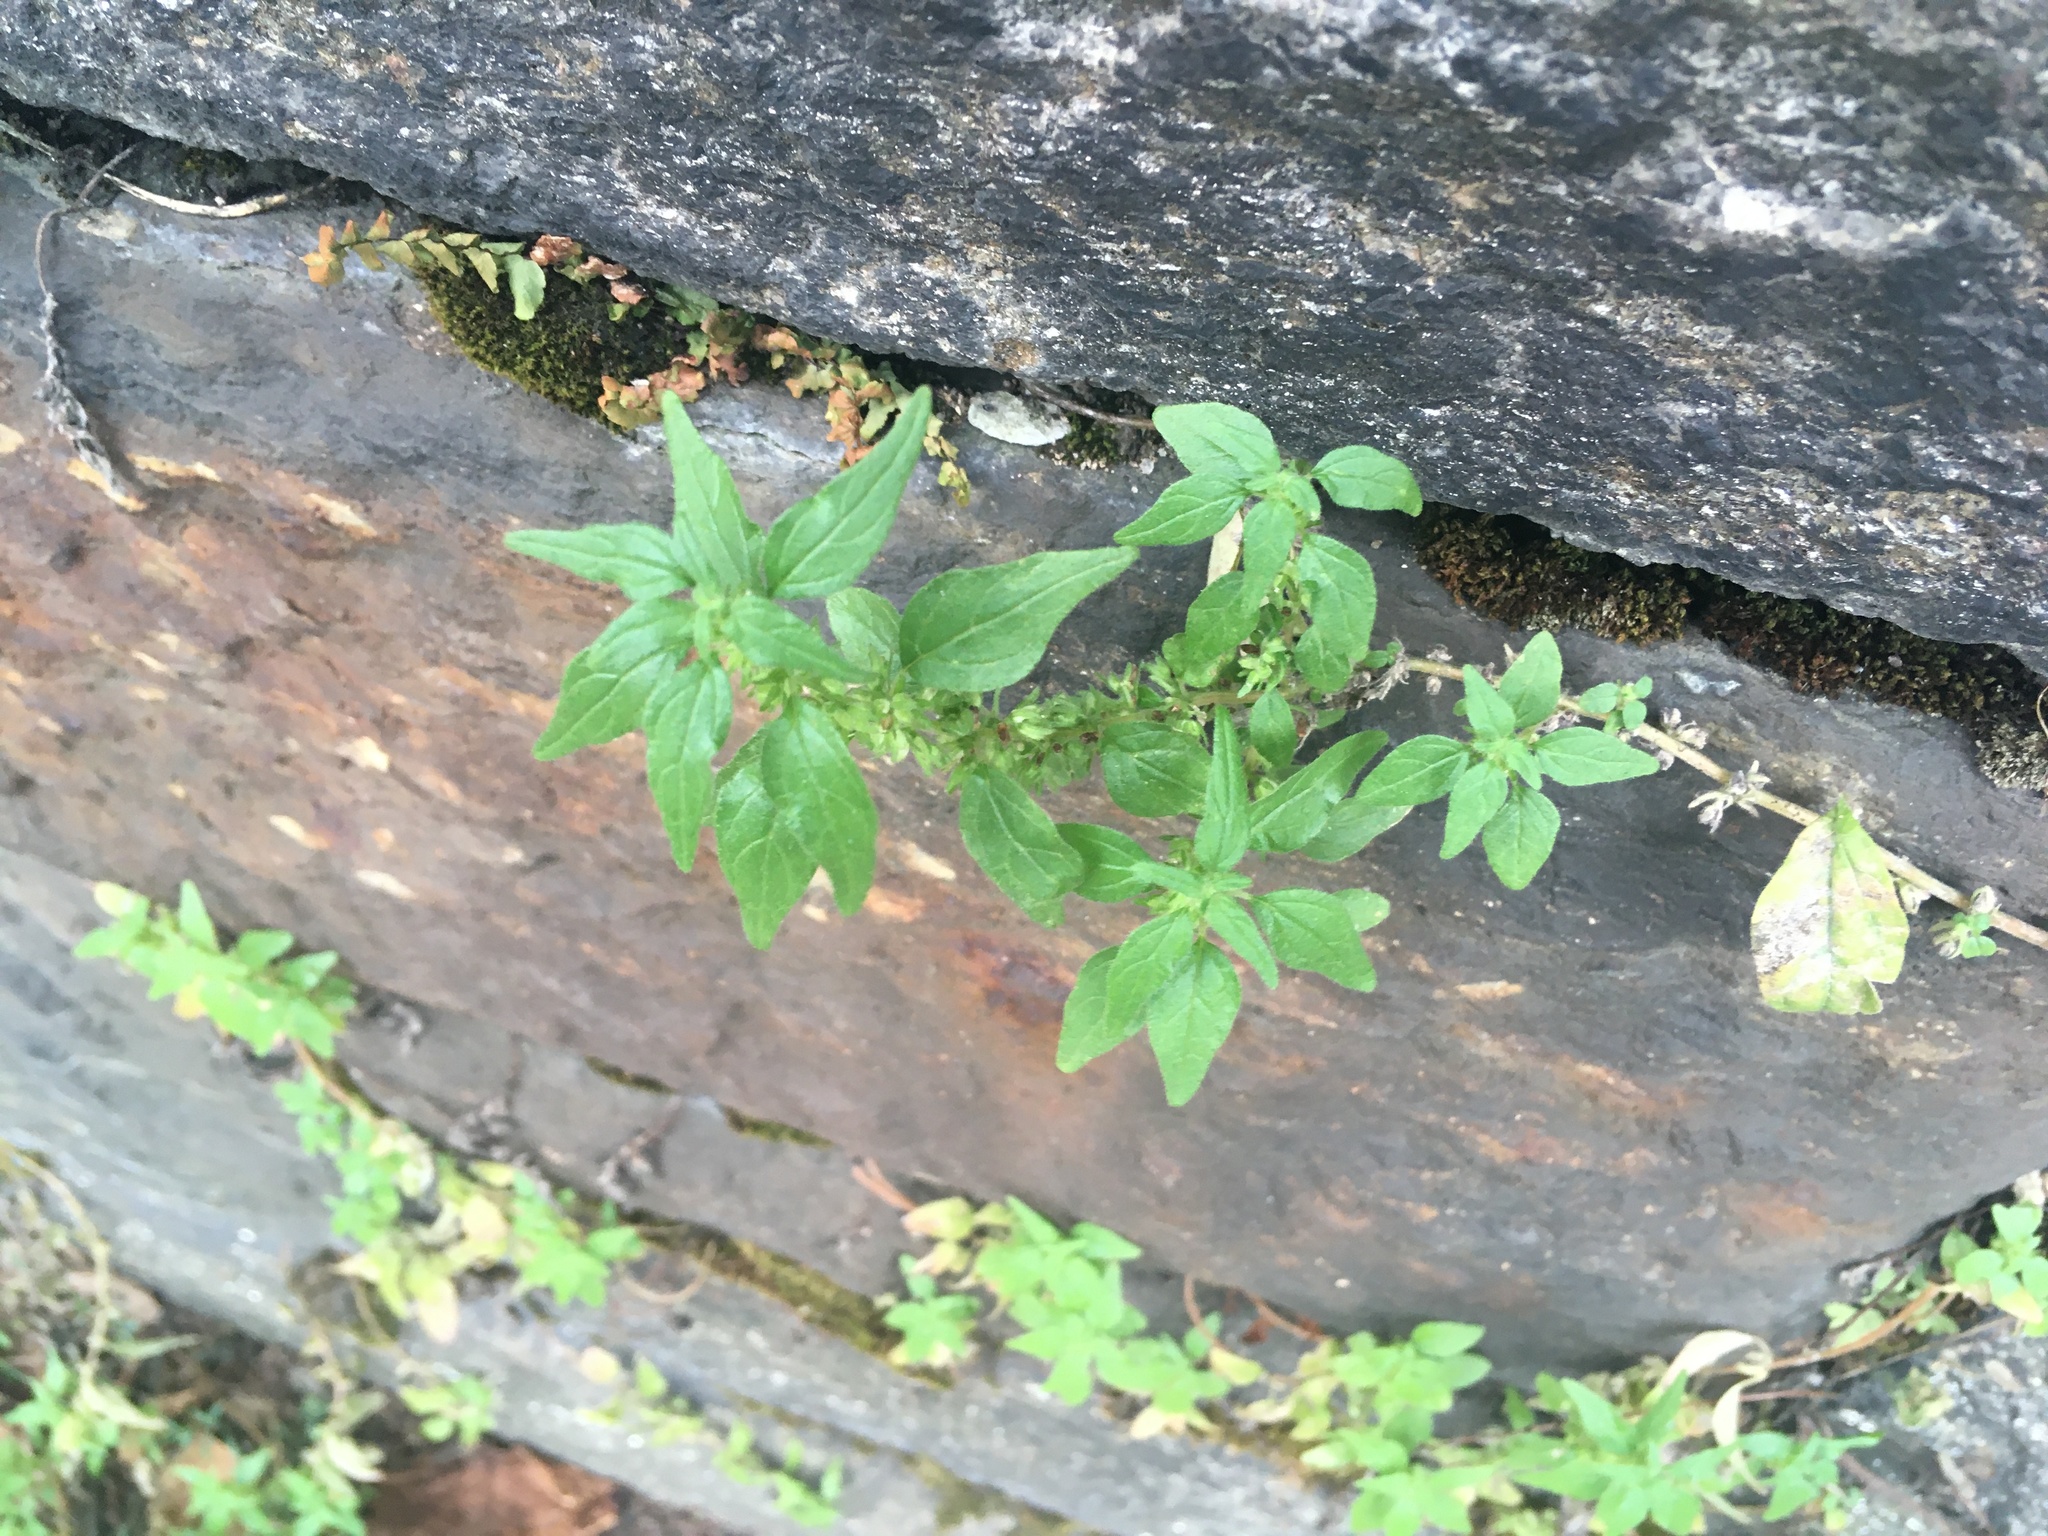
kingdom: Plantae
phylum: Tracheophyta
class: Magnoliopsida
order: Rosales
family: Urticaceae
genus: Parietaria
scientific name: Parietaria pensylvanica
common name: Pennsylvania pellitory
